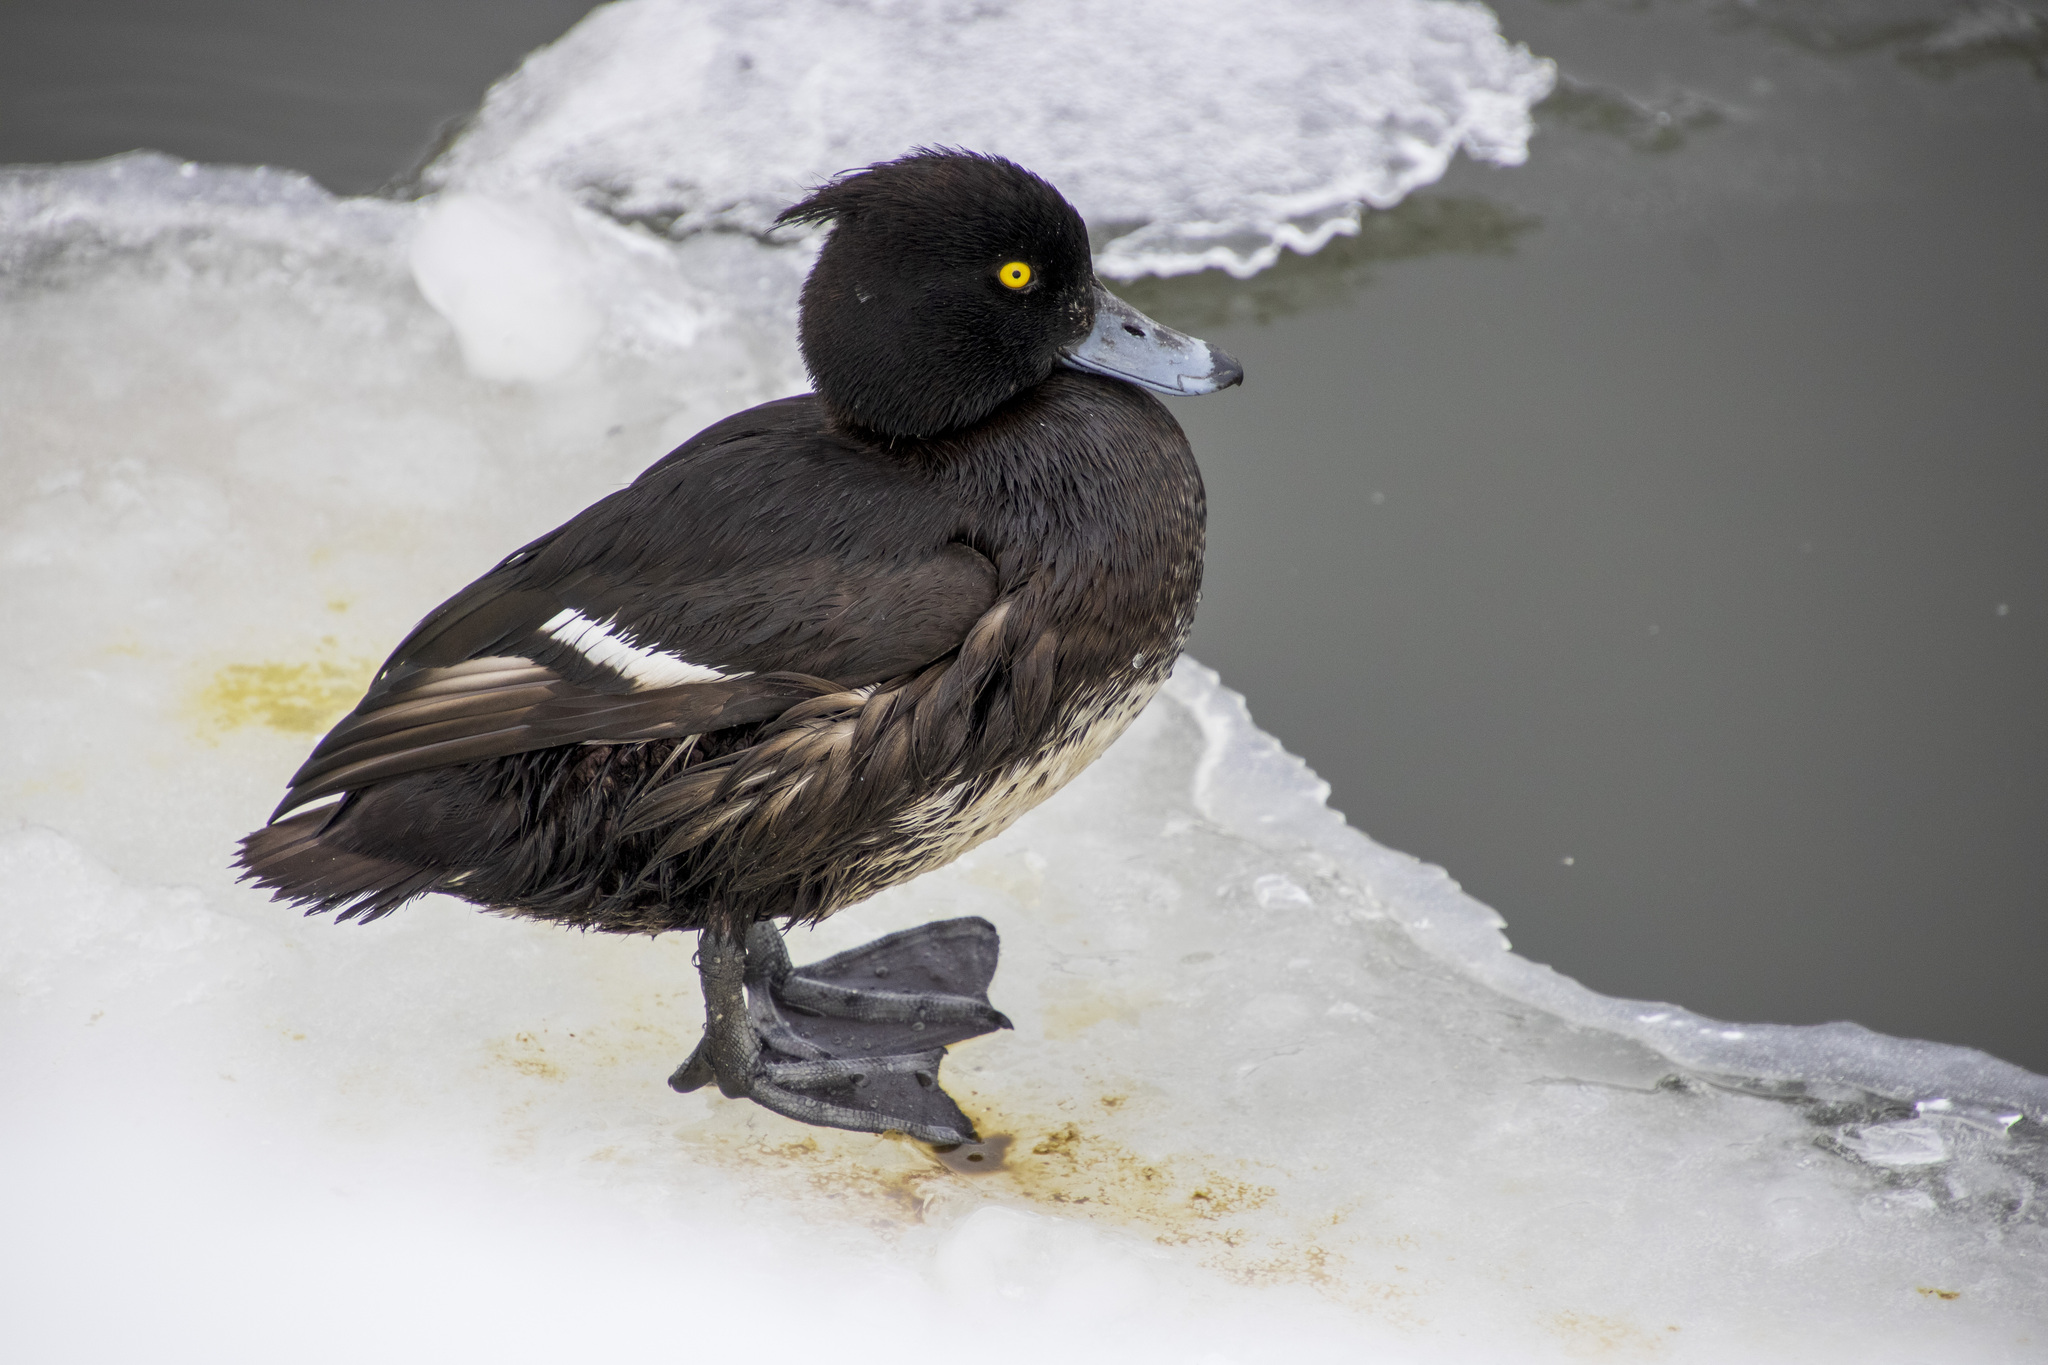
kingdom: Animalia
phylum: Chordata
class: Aves
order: Anseriformes
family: Anatidae
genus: Aythya
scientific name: Aythya fuligula
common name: Tufted duck
